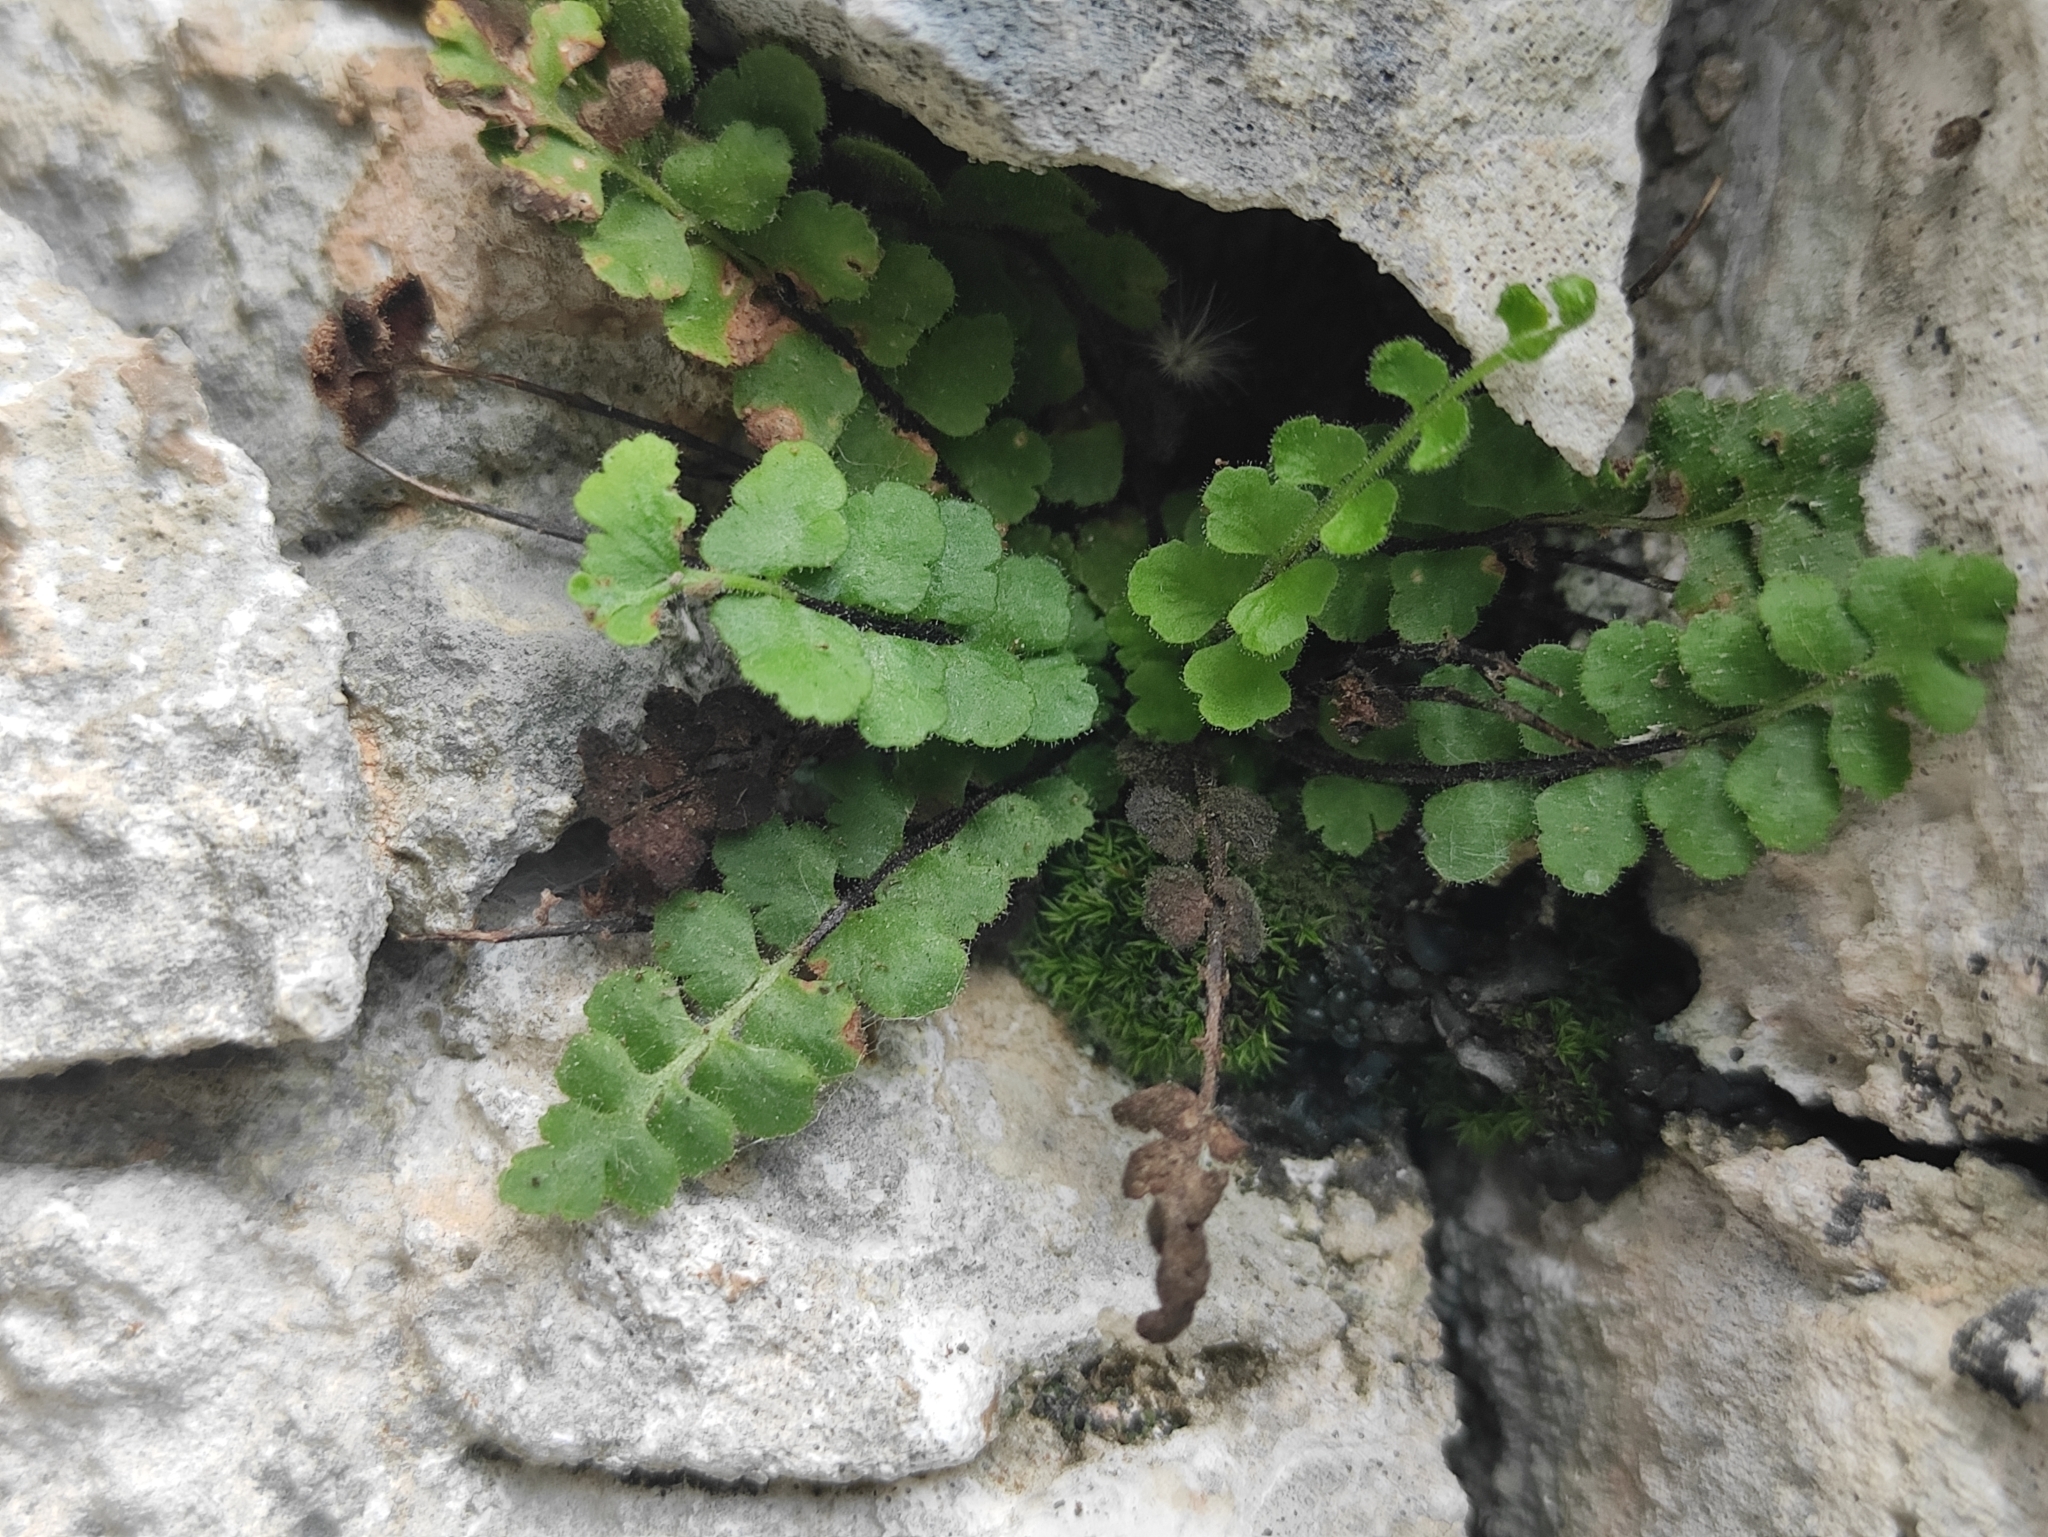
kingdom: Plantae
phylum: Tracheophyta
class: Polypodiopsida
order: Polypodiales
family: Aspleniaceae
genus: Asplenium
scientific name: Asplenium petrarchae
